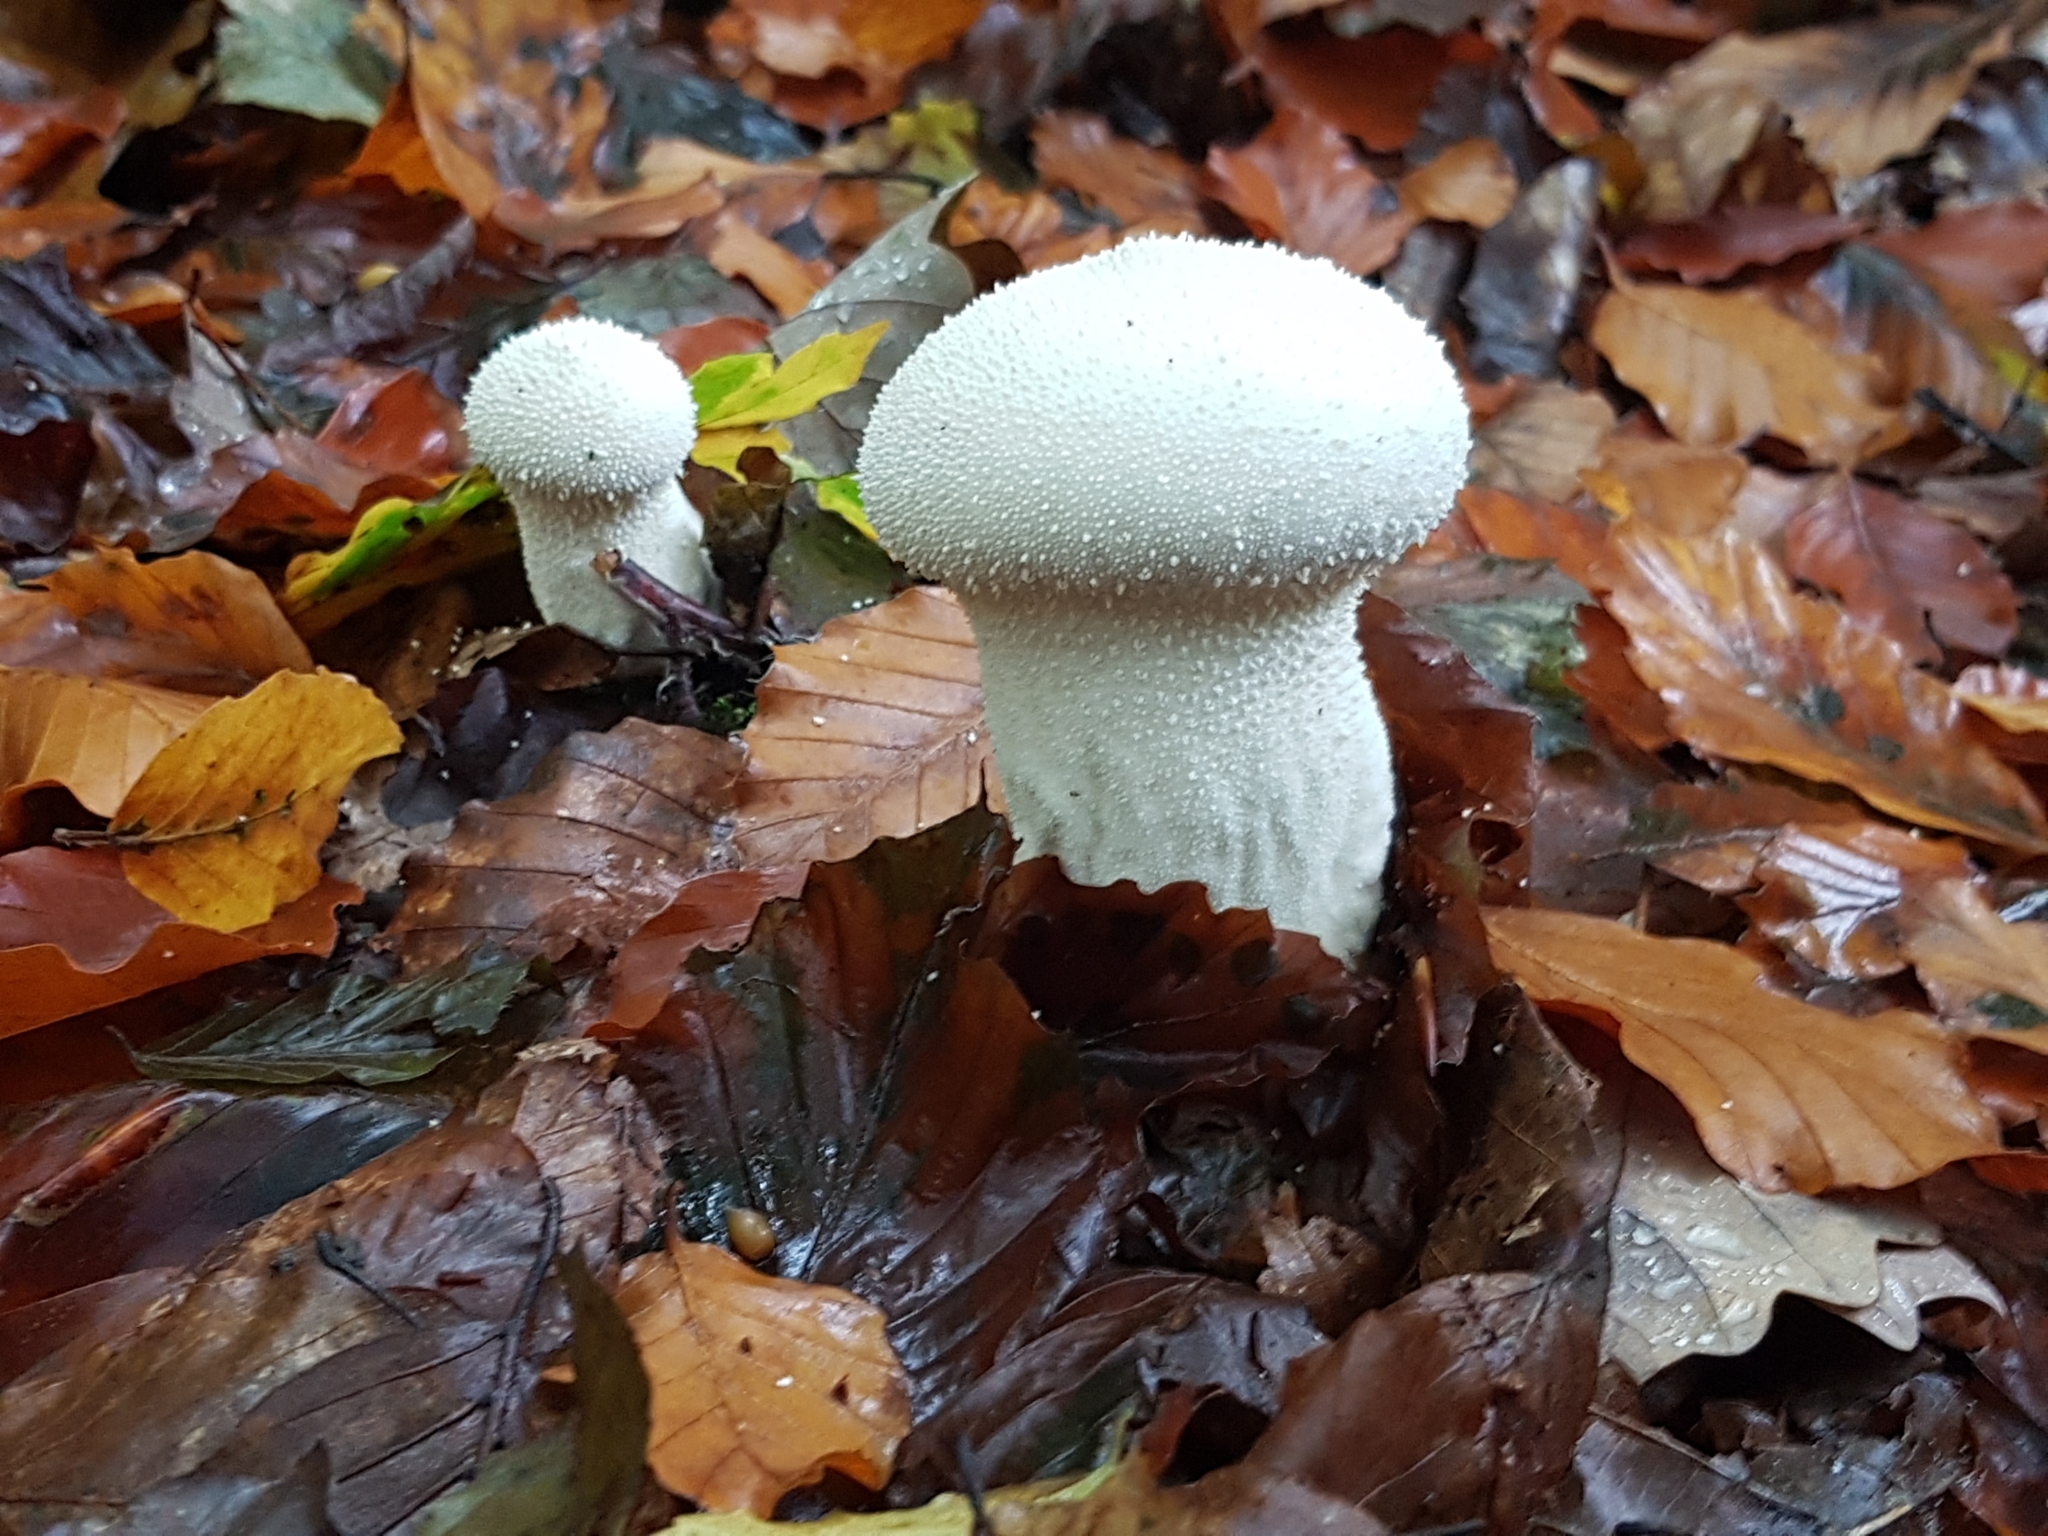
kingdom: Fungi
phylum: Basidiomycota
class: Agaricomycetes
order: Agaricales
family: Lycoperdaceae
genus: Lycoperdon
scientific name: Lycoperdon perlatum
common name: Common puffball
